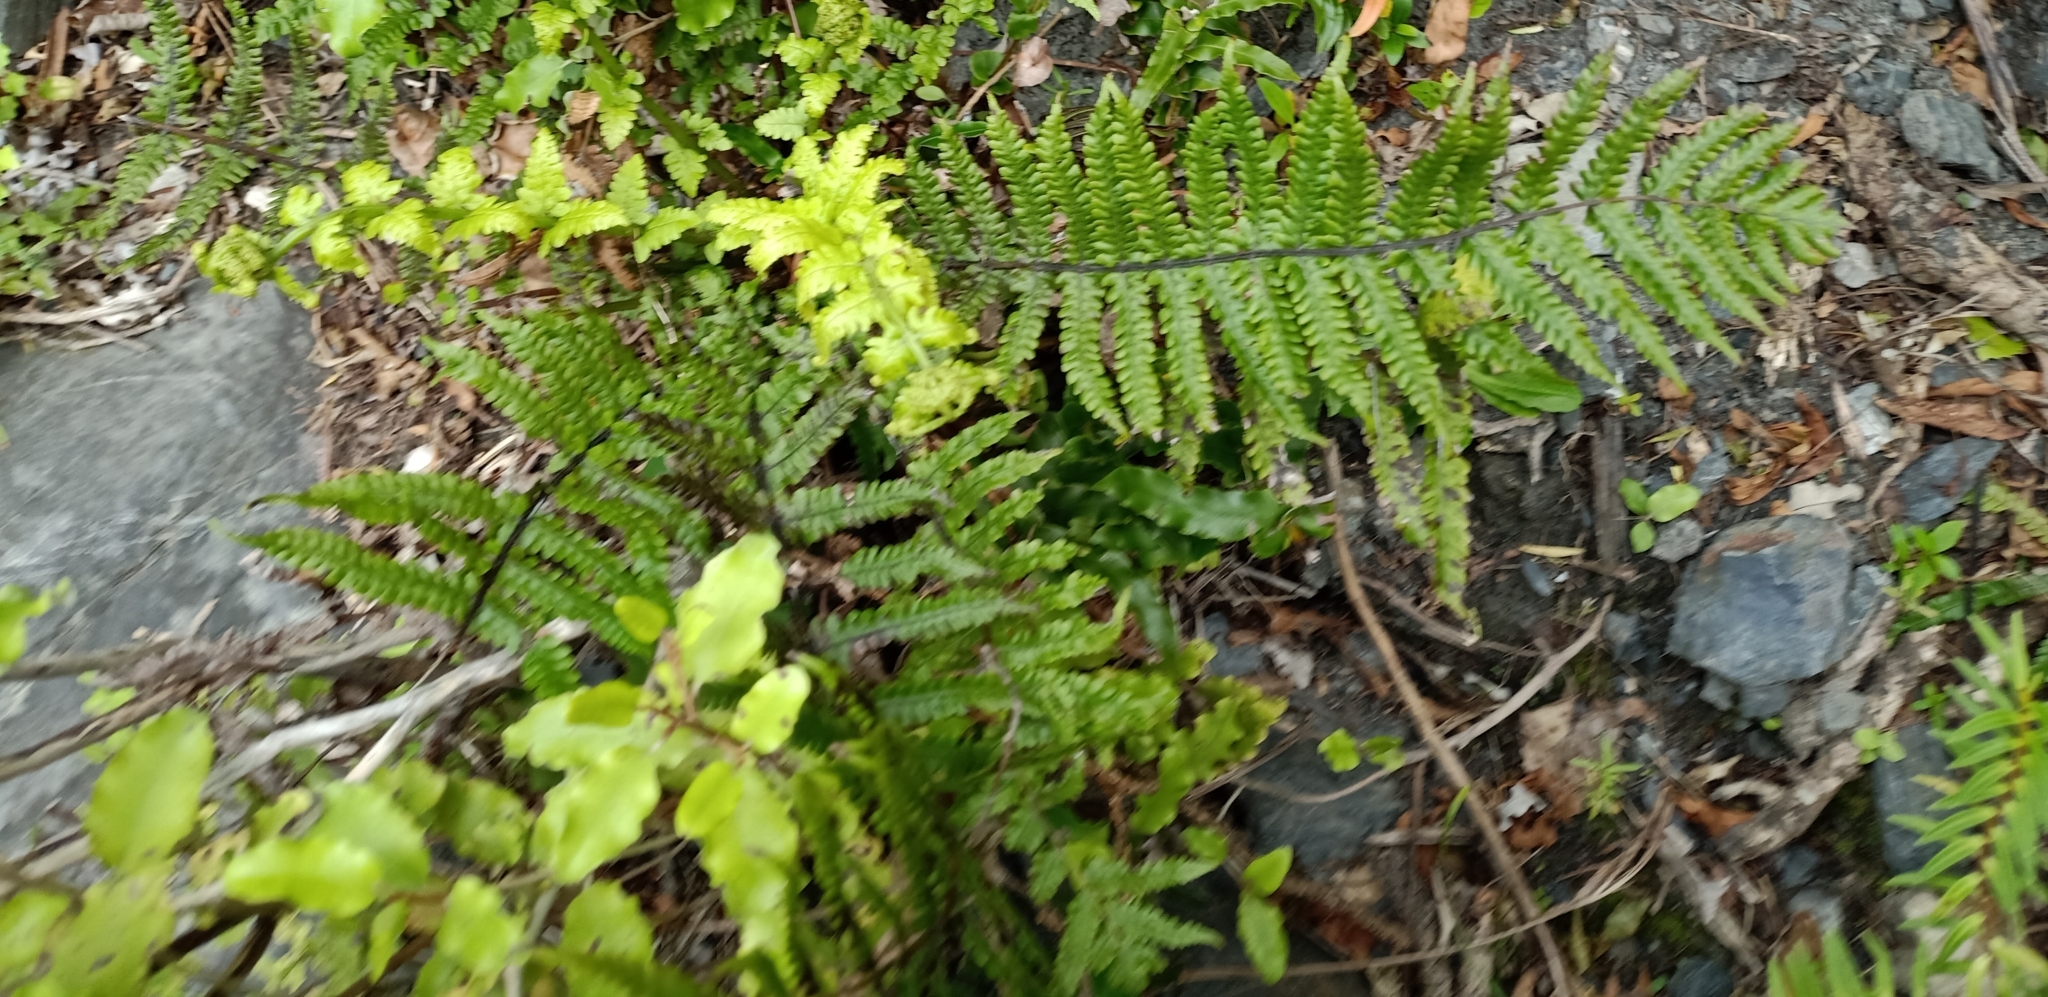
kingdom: Plantae
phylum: Tracheophyta
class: Polypodiopsida
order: Polypodiales
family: Thelypteridaceae
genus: Pakau
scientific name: Pakau pennigera
